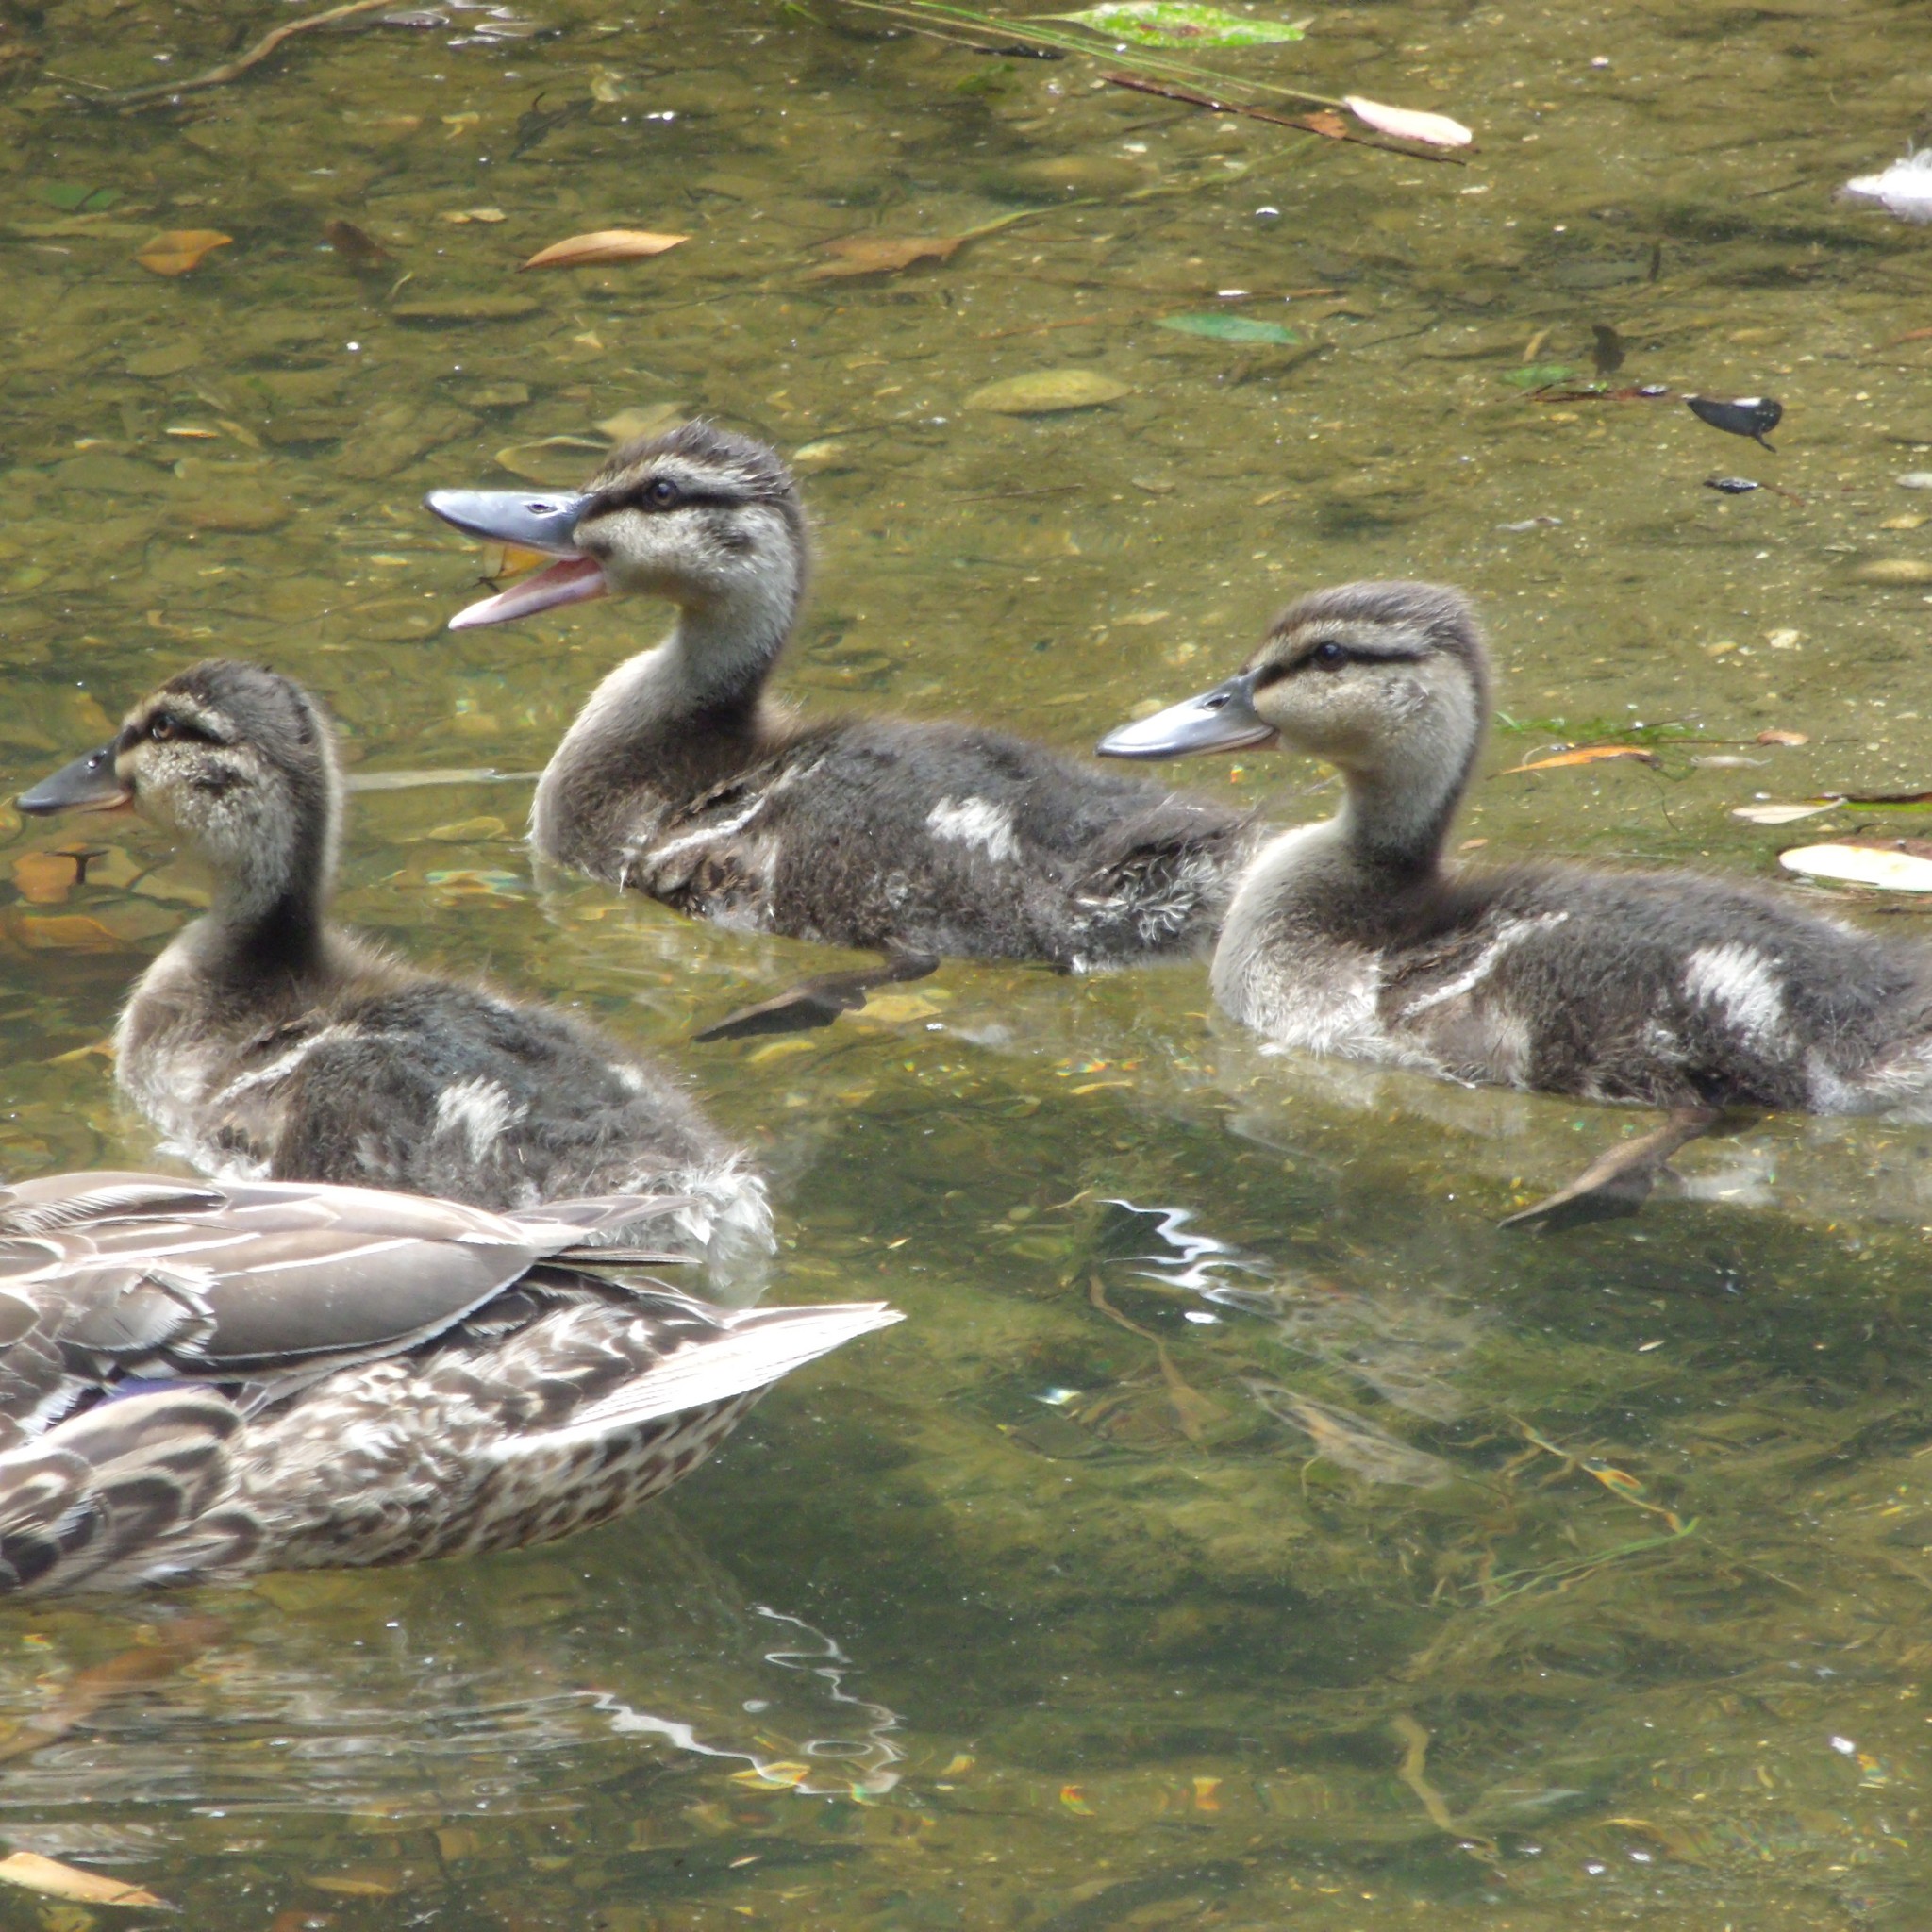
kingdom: Animalia
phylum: Chordata
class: Aves
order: Anseriformes
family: Anatidae
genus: Anas
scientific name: Anas platyrhynchos
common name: Mallard
